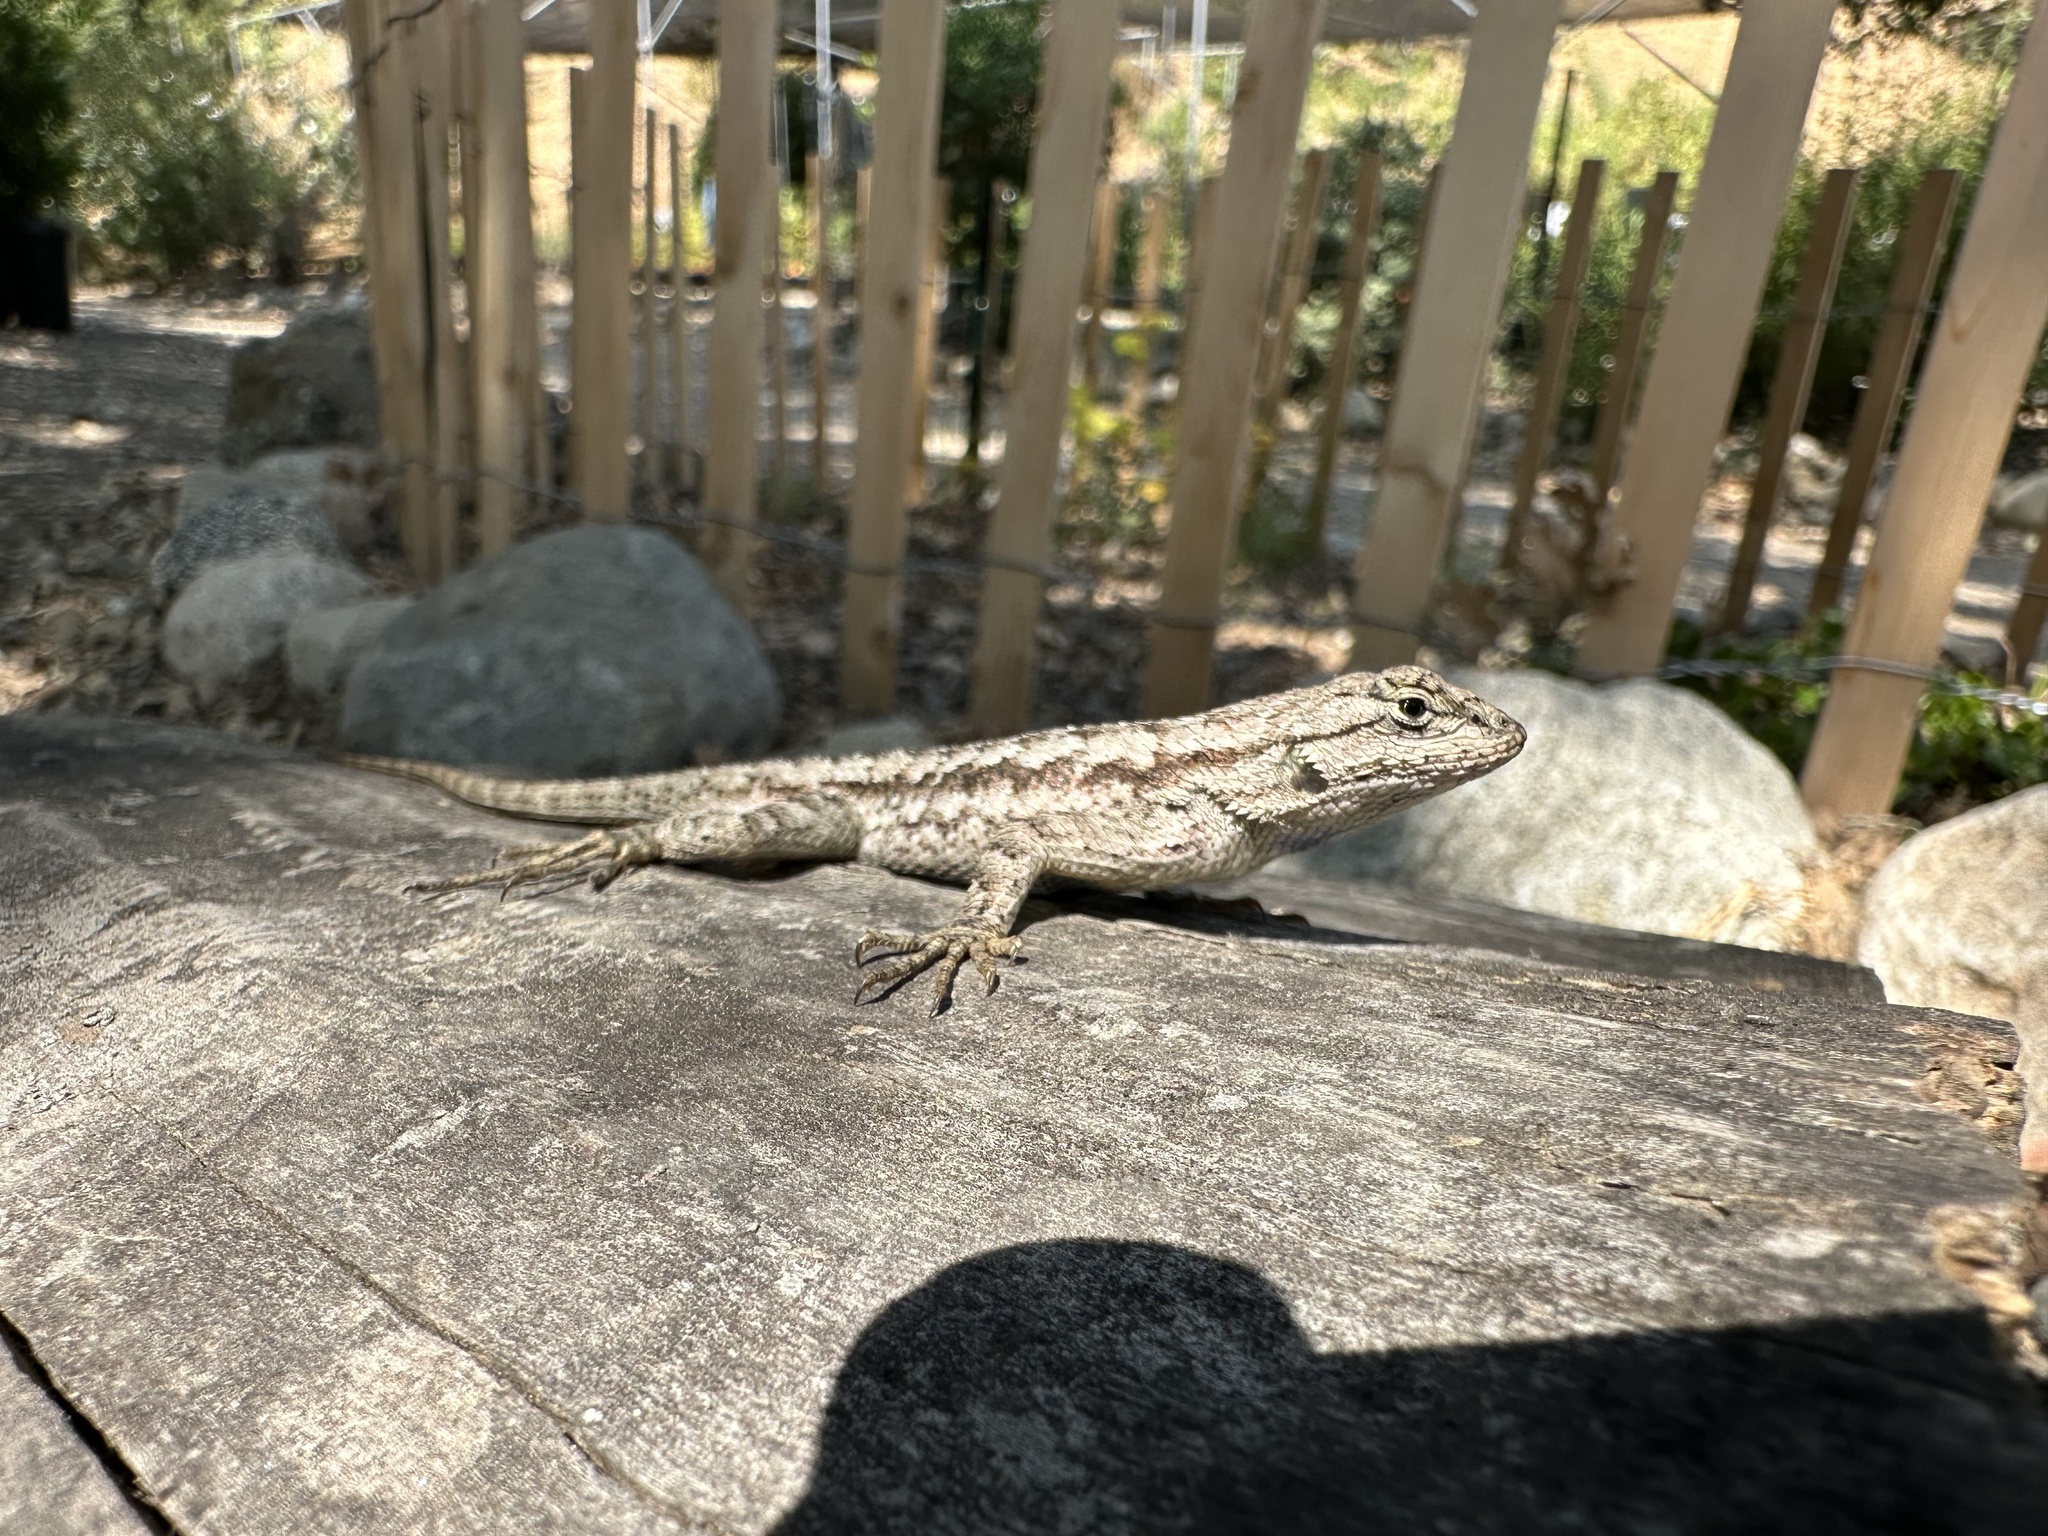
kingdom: Animalia
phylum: Chordata
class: Squamata
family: Phrynosomatidae
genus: Sceloporus
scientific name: Sceloporus occidentalis
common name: Western fence lizard
